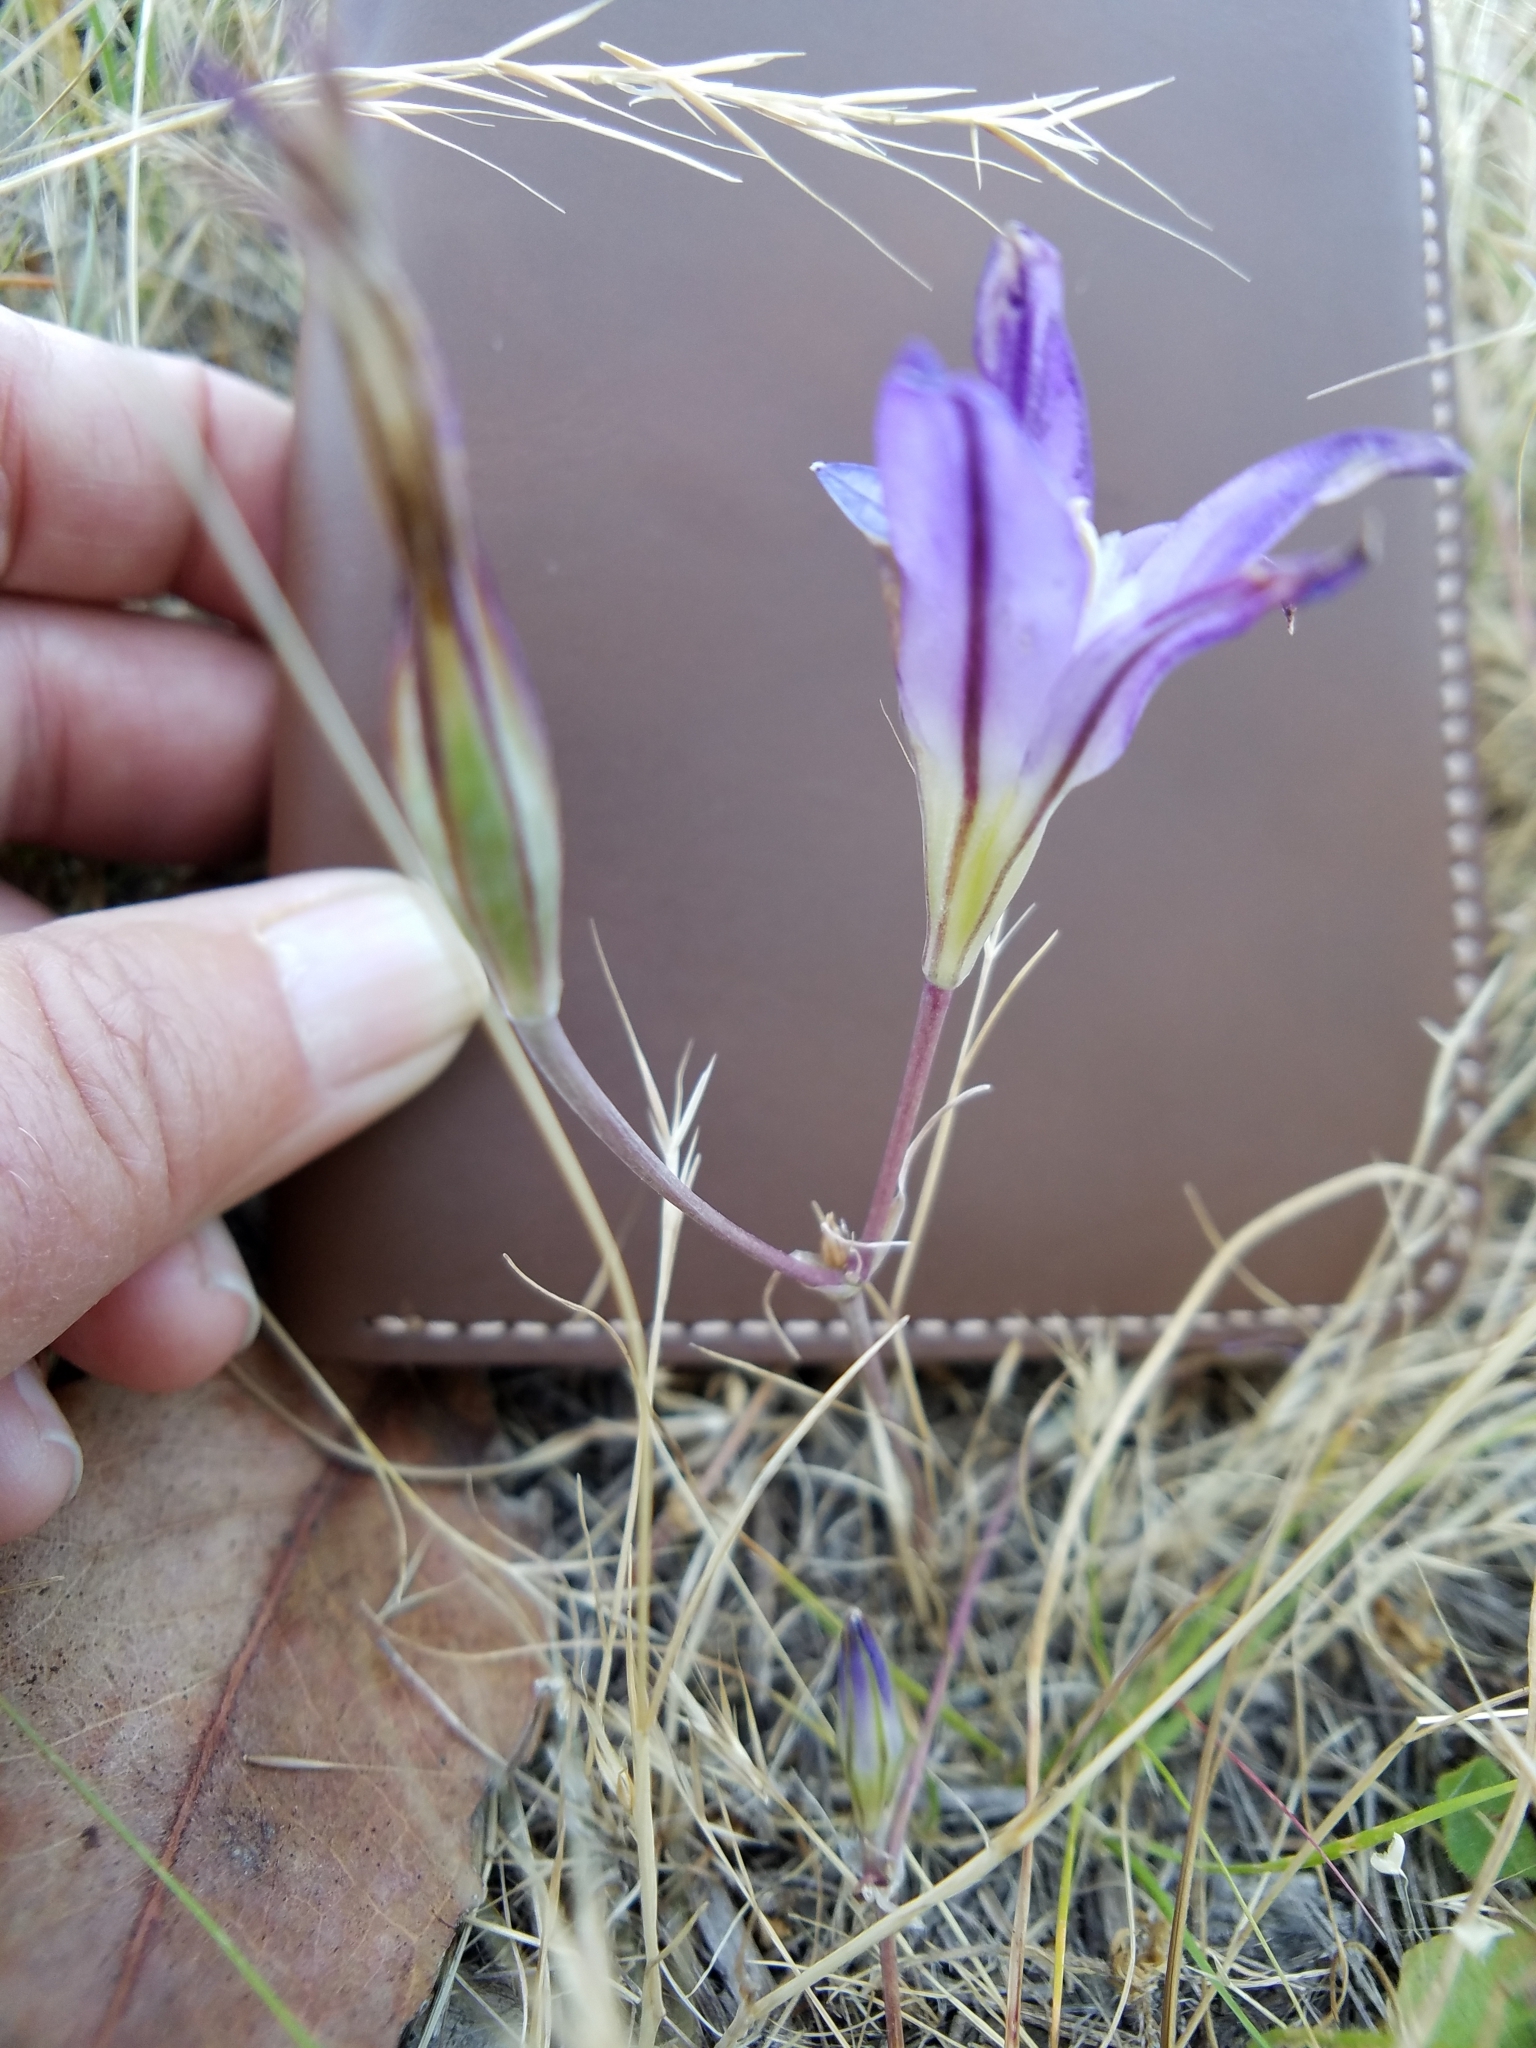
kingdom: Plantae
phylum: Tracheophyta
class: Liliopsida
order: Asparagales
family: Asparagaceae
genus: Brodiaea
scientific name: Brodiaea elegans
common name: Elegant cluster-lily
